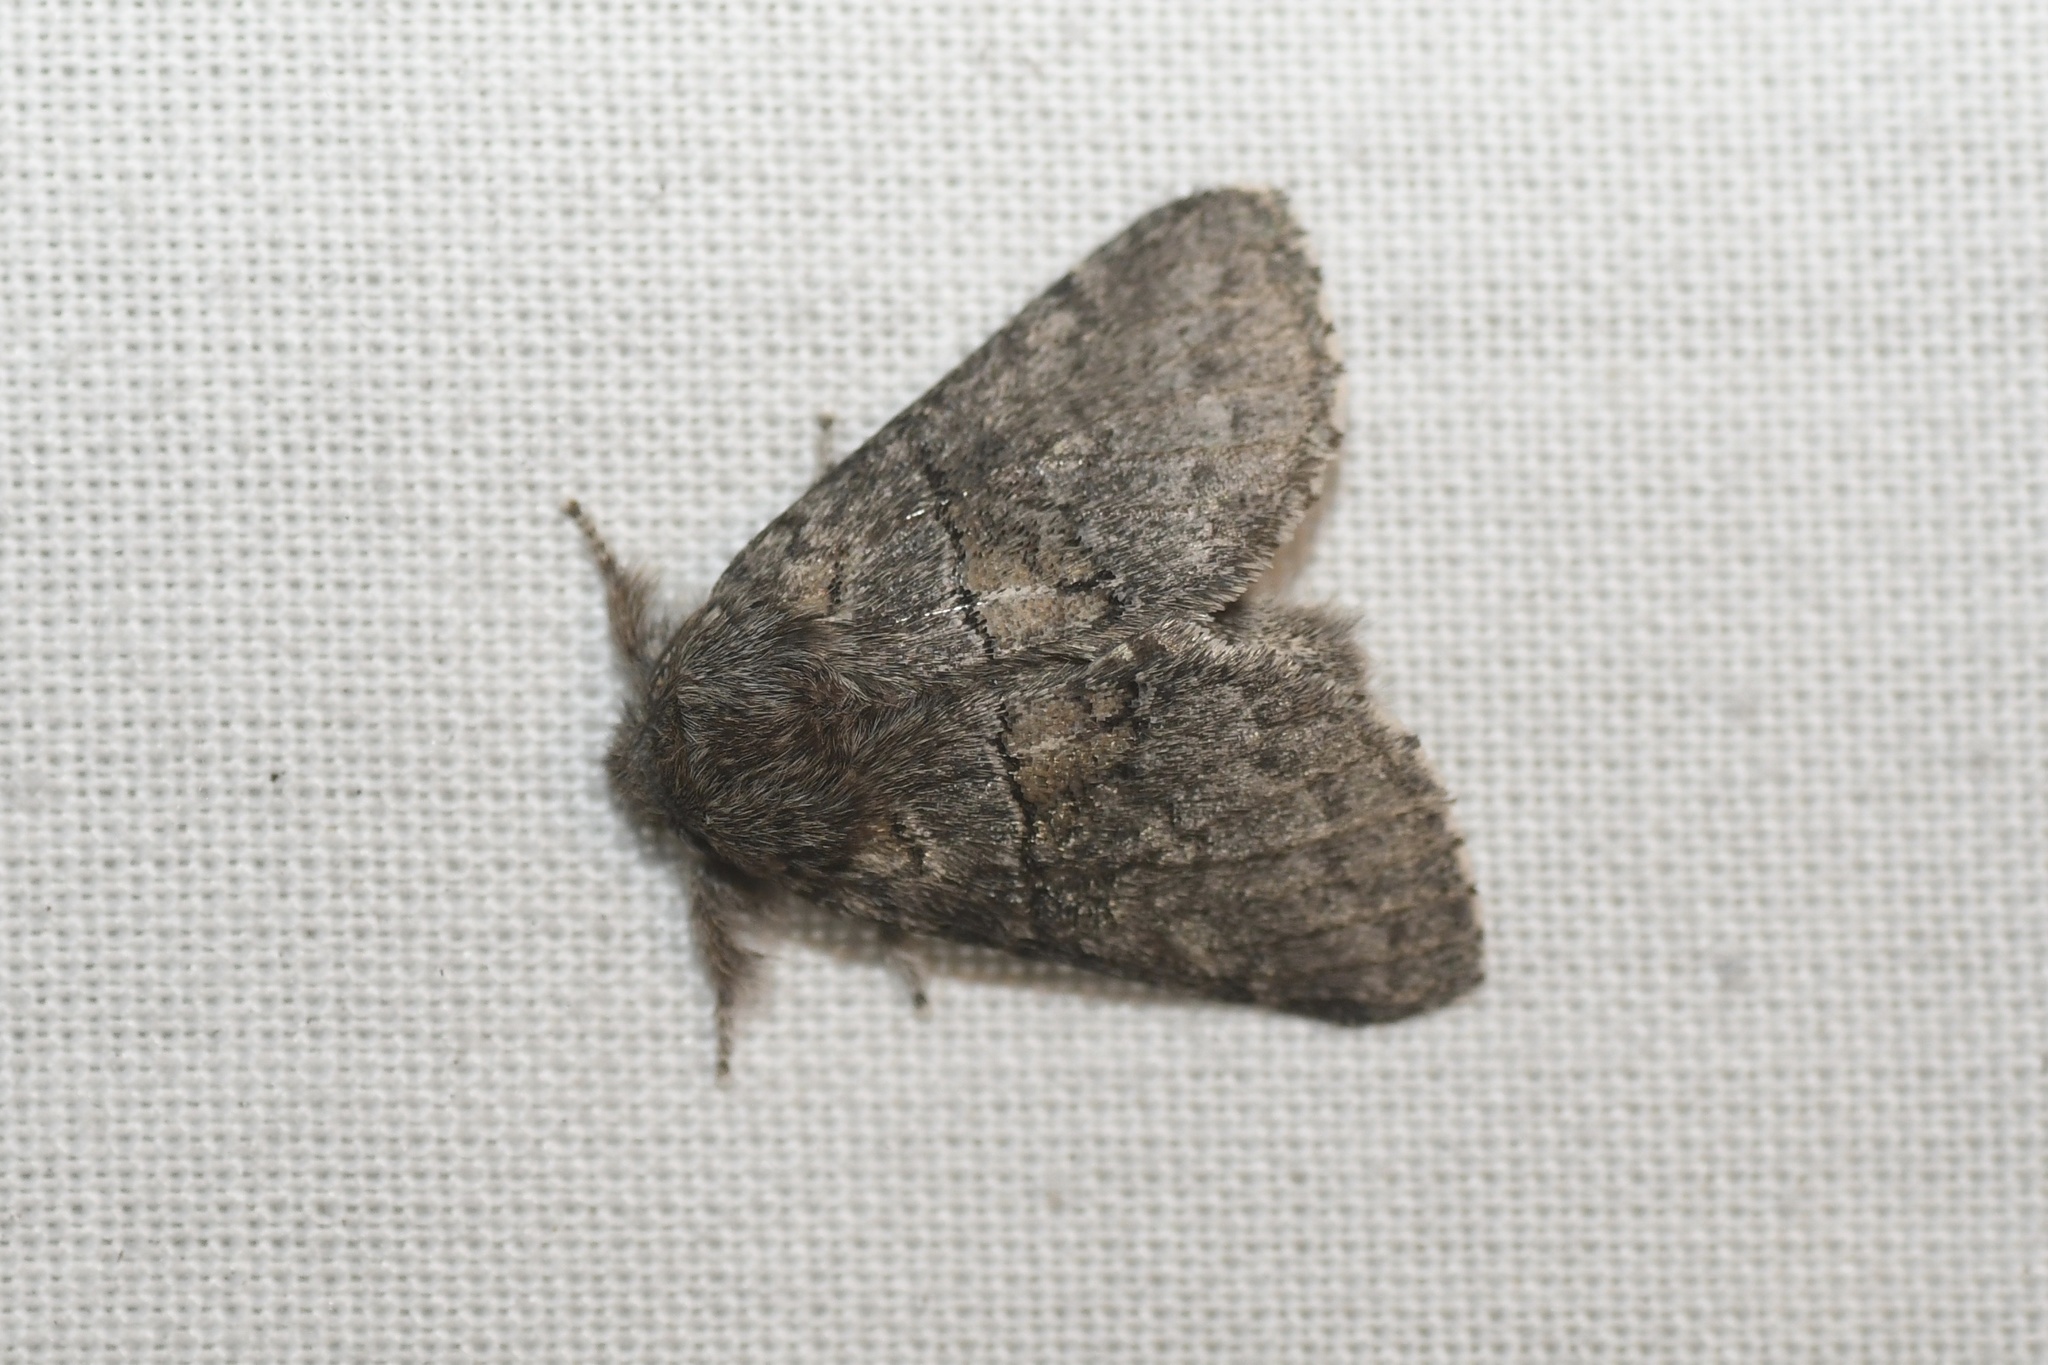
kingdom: Animalia
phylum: Arthropoda
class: Insecta
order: Lepidoptera
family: Notodontidae
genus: Gluphisia
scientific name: Gluphisia septentrionis
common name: Common gluphisia
